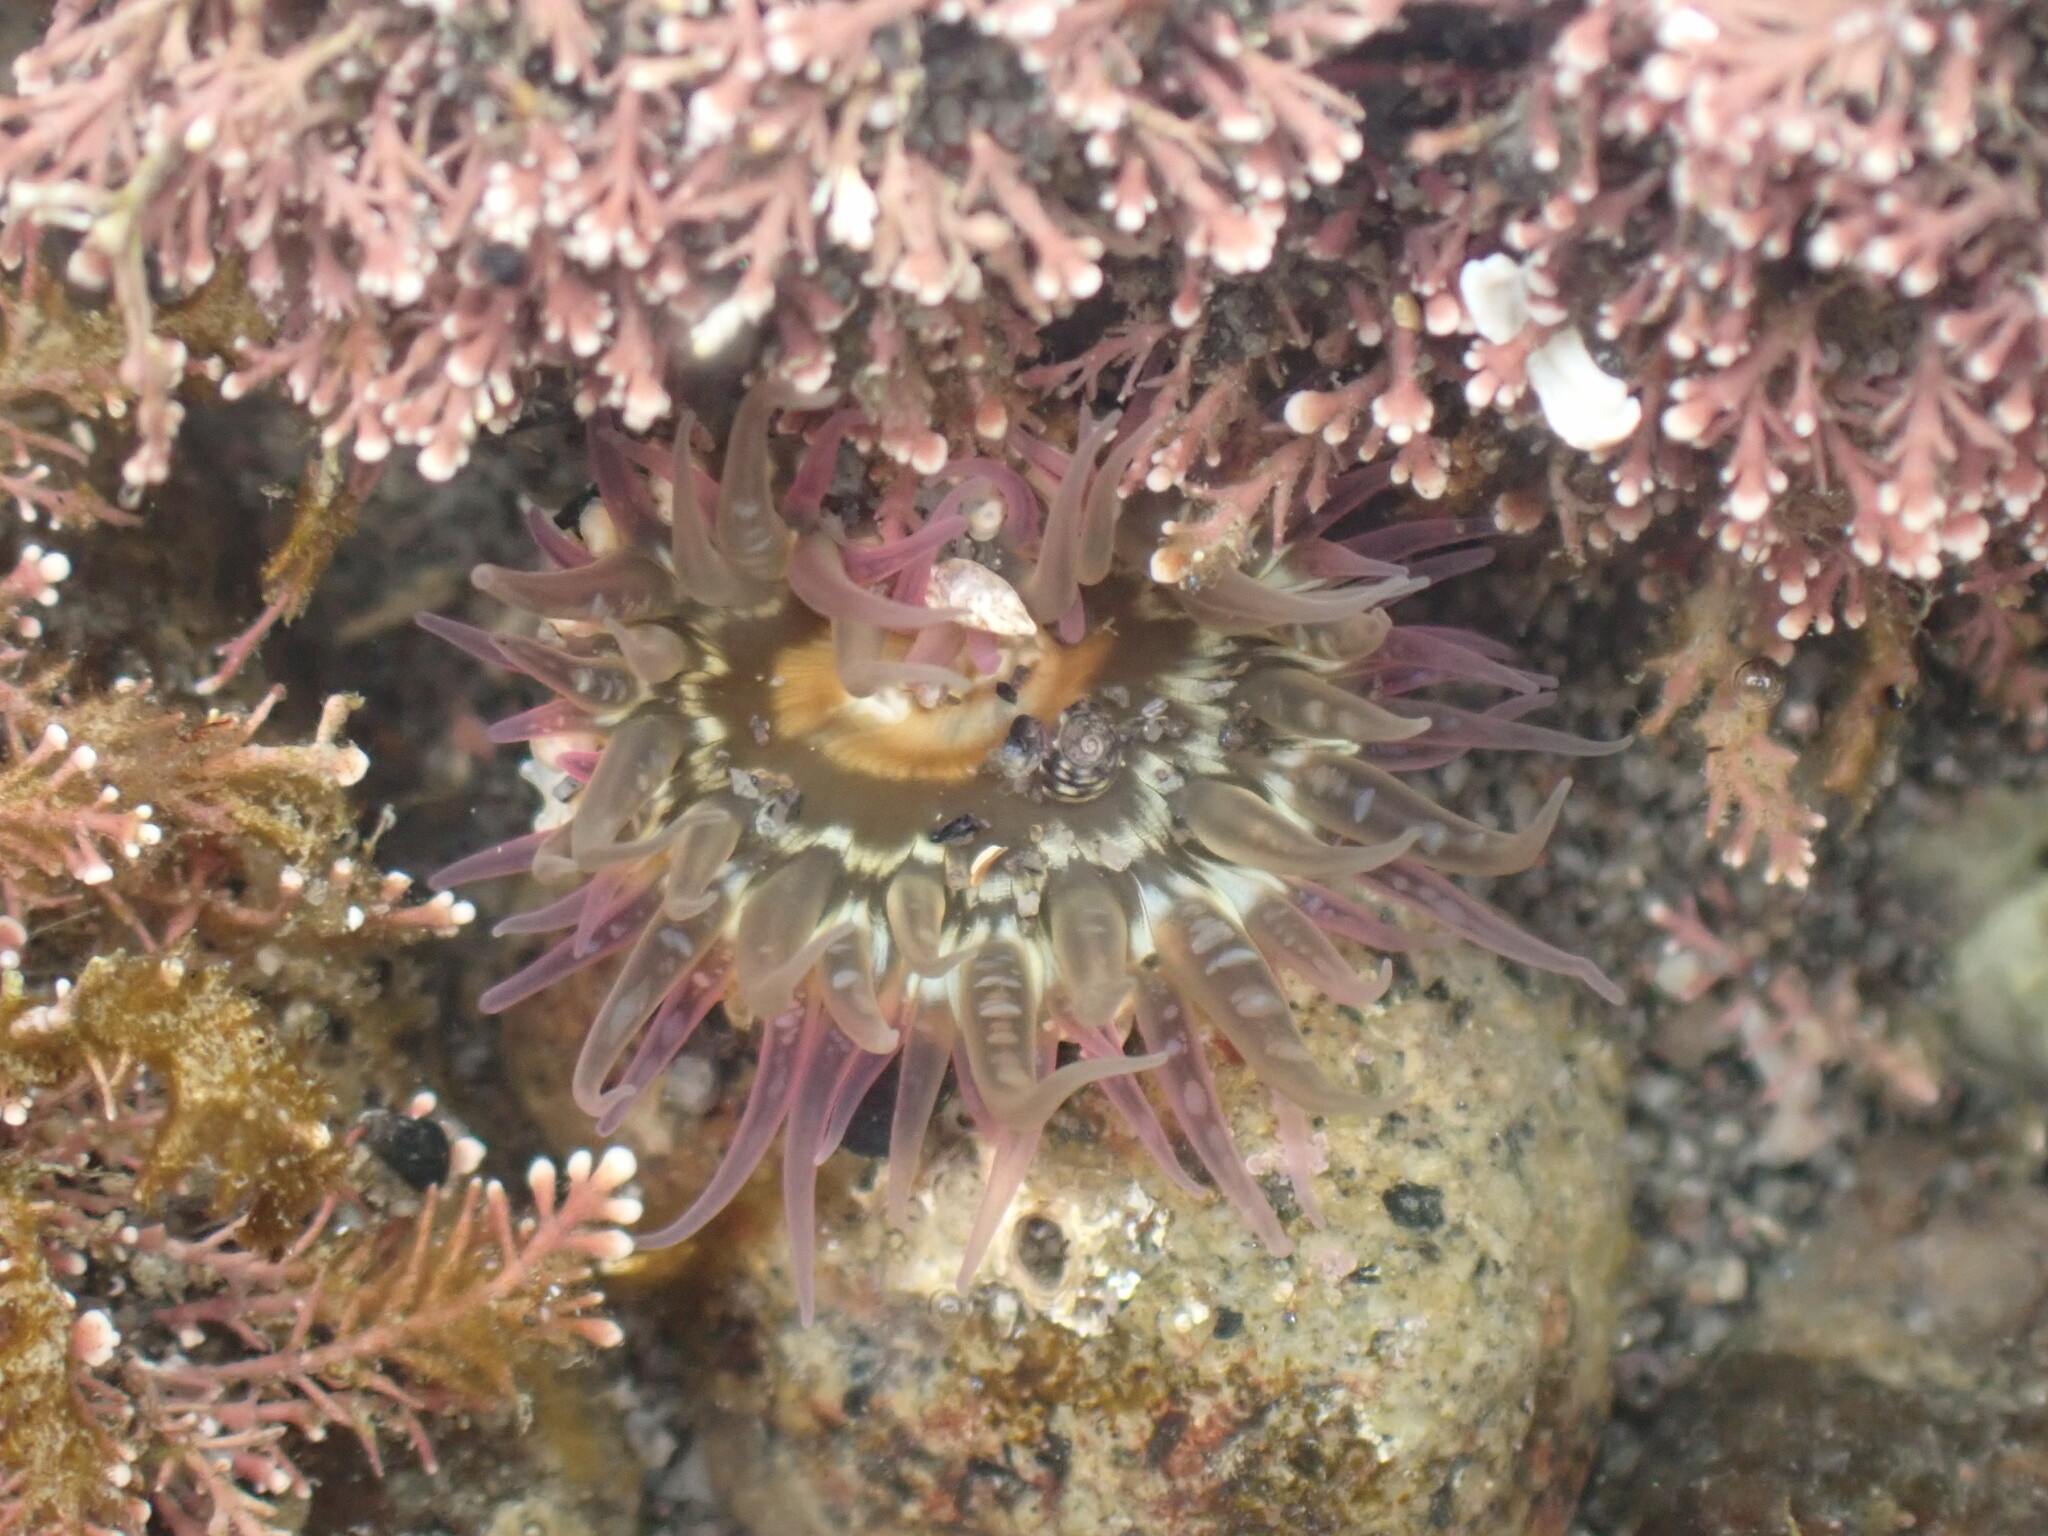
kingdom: Animalia
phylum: Cnidaria
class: Anthozoa
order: Actiniaria
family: Actiniidae
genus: Oulactis
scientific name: Oulactis muscosa
